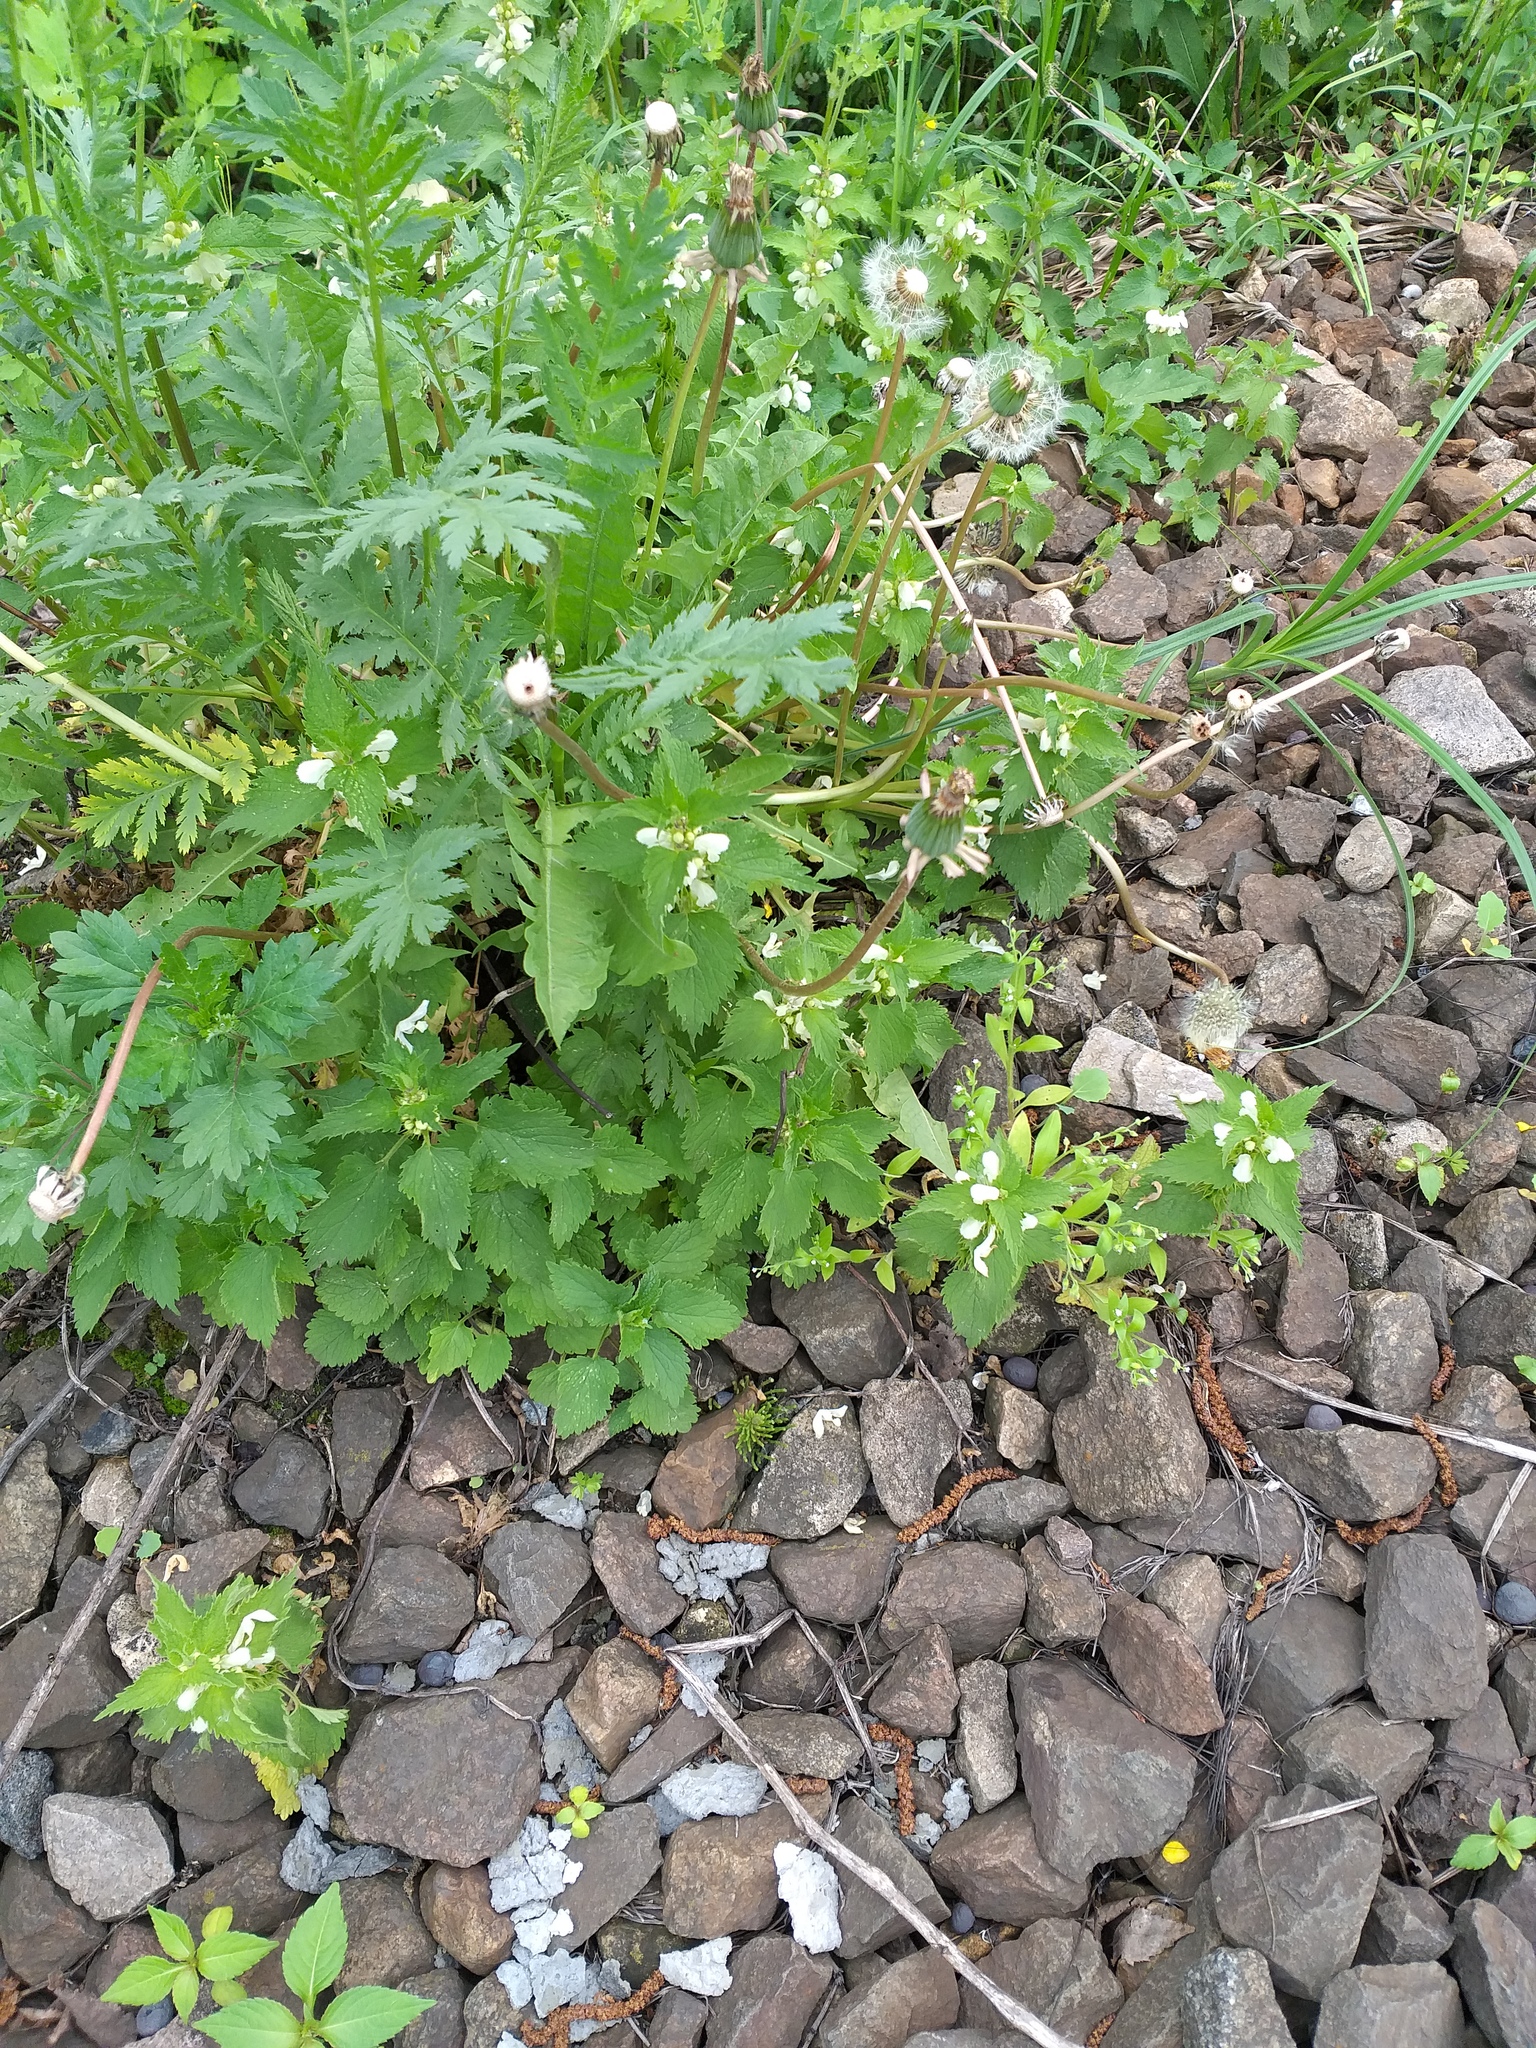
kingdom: Plantae
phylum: Tracheophyta
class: Magnoliopsida
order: Lamiales
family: Lamiaceae
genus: Lamium
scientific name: Lamium album
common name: White dead-nettle
